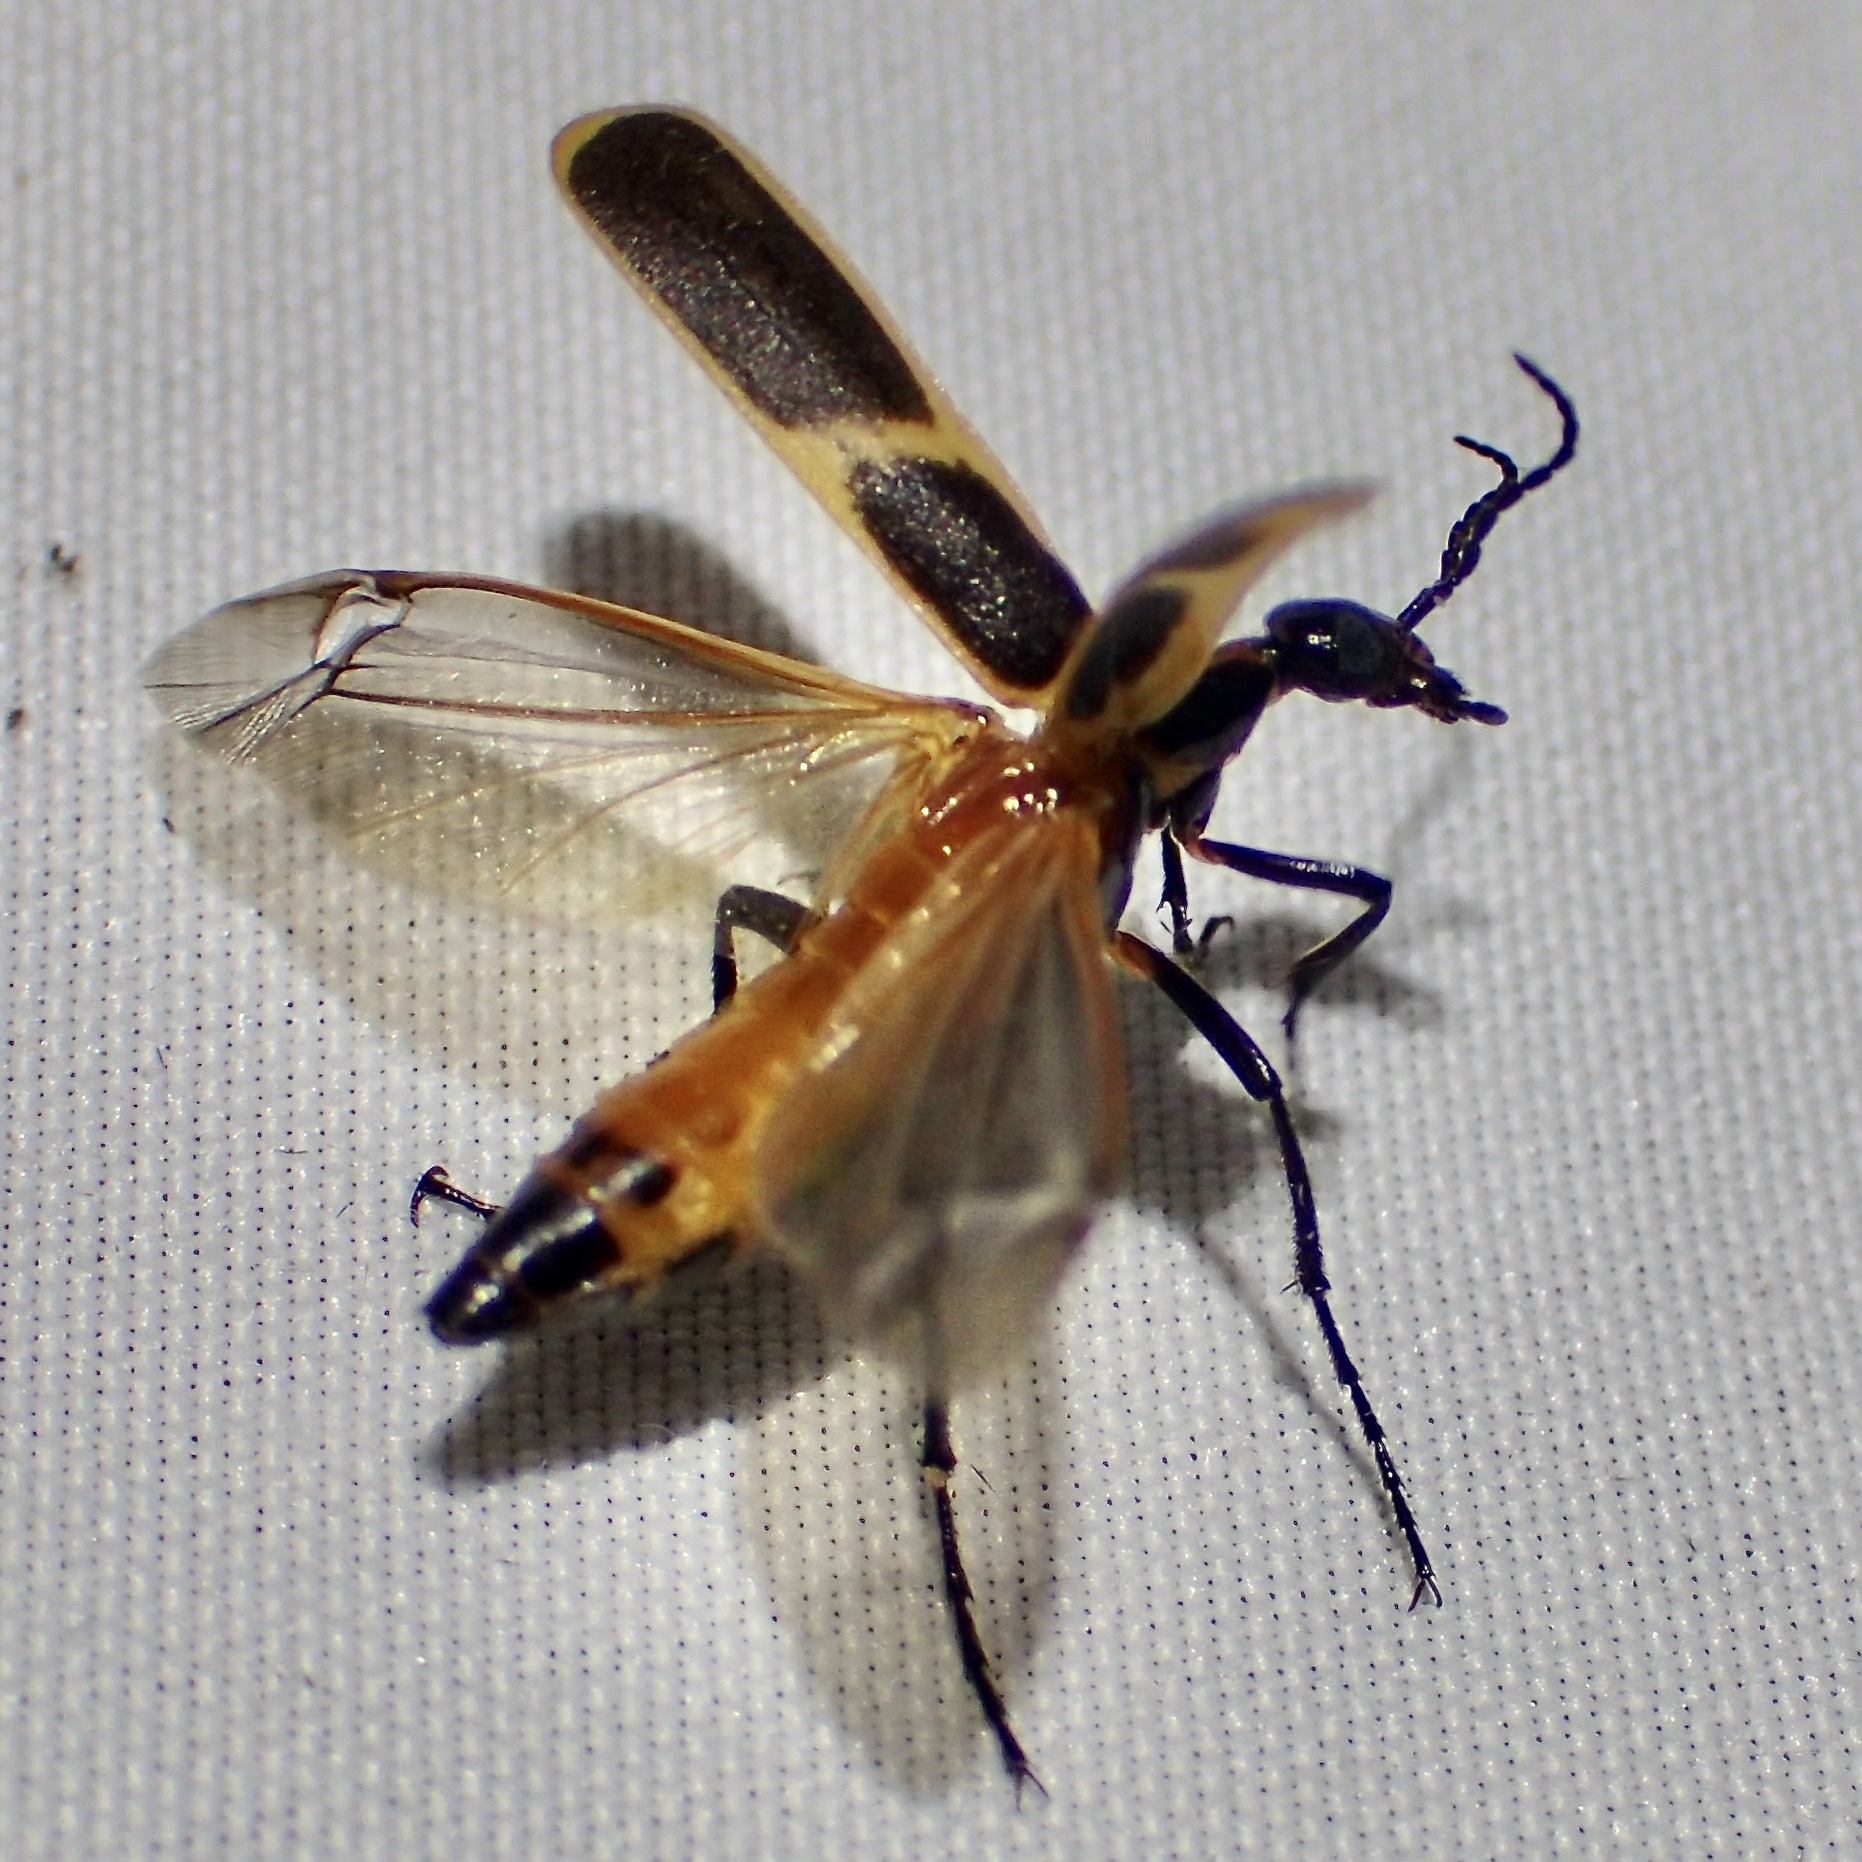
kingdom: Animalia
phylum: Arthropoda
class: Insecta
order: Coleoptera
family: Meloidae
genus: Pyrota
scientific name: Pyrota
